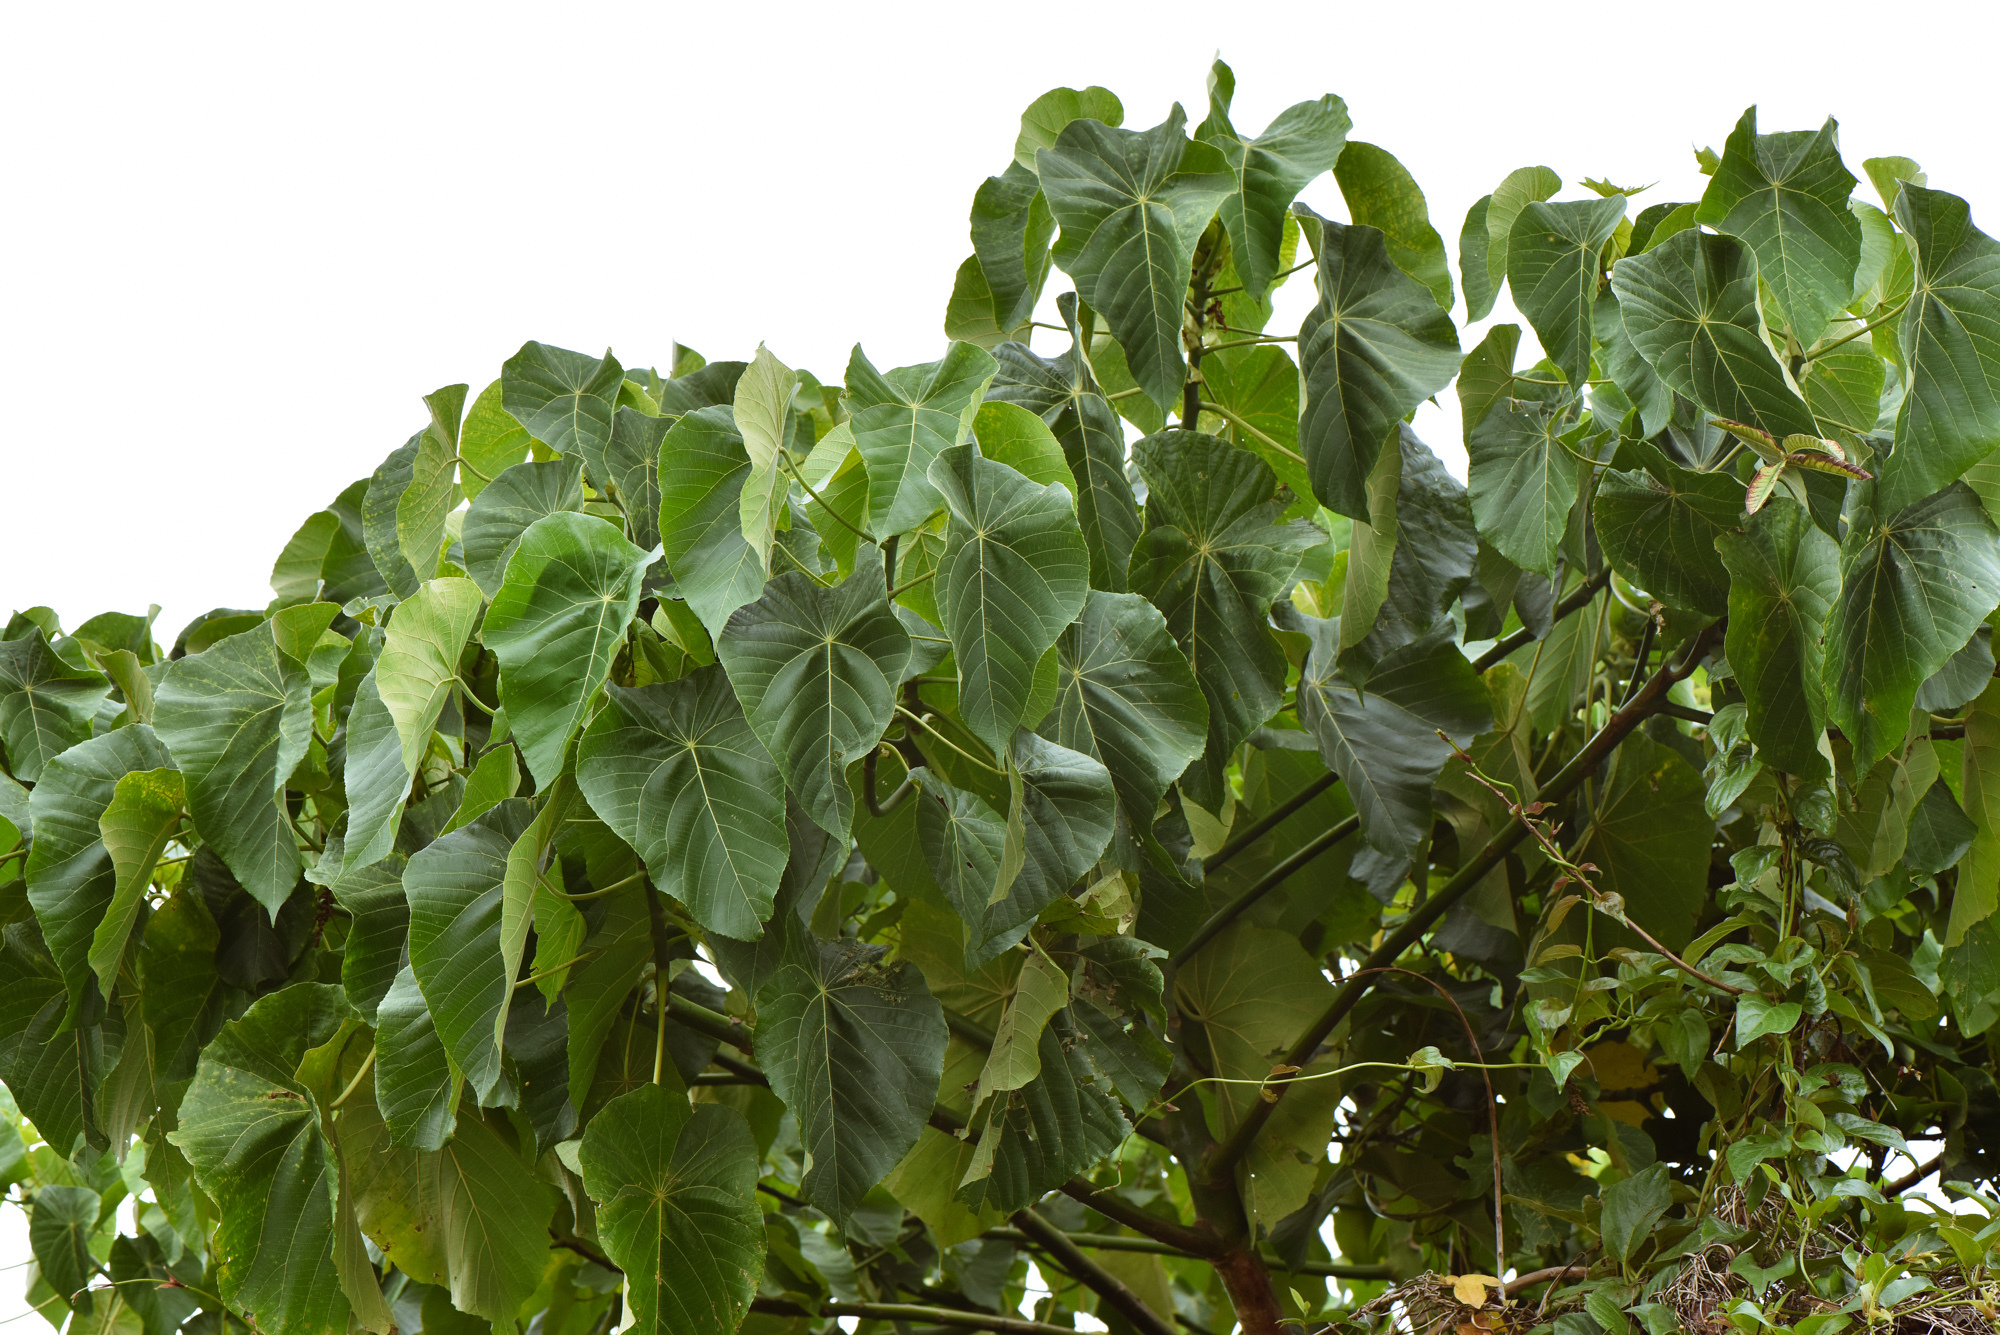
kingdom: Plantae
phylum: Tracheophyta
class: Magnoliopsida
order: Malpighiales
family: Euphorbiaceae
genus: Macaranga
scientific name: Macaranga tanarius
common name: Parasol leaf tree
